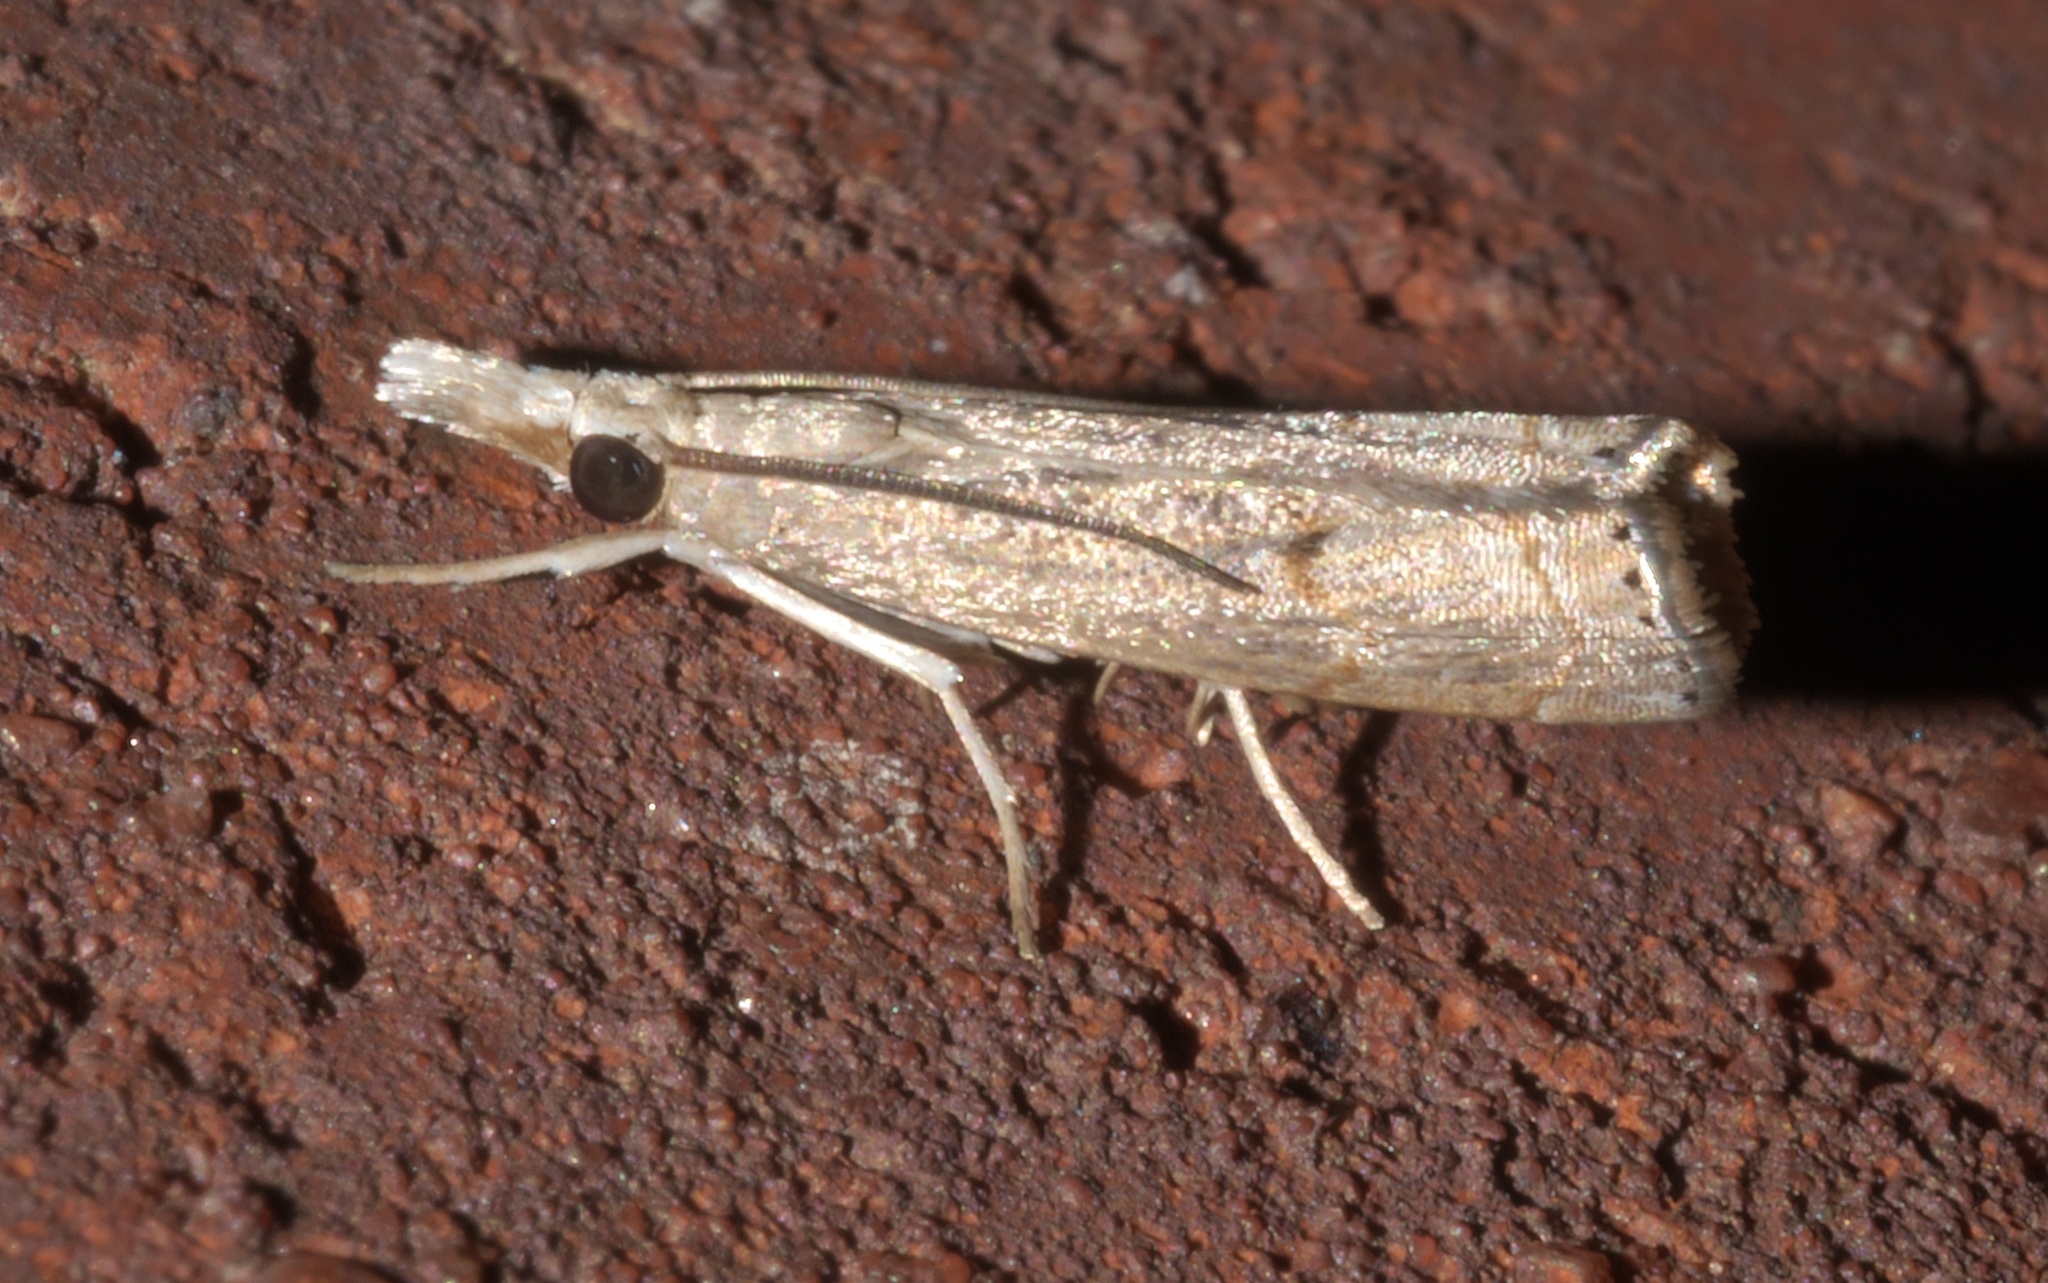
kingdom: Animalia
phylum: Arthropoda
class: Insecta
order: Lepidoptera
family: Crambidae
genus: Parapediasia
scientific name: Parapediasia teterellus
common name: Bluegrass webworm moth
